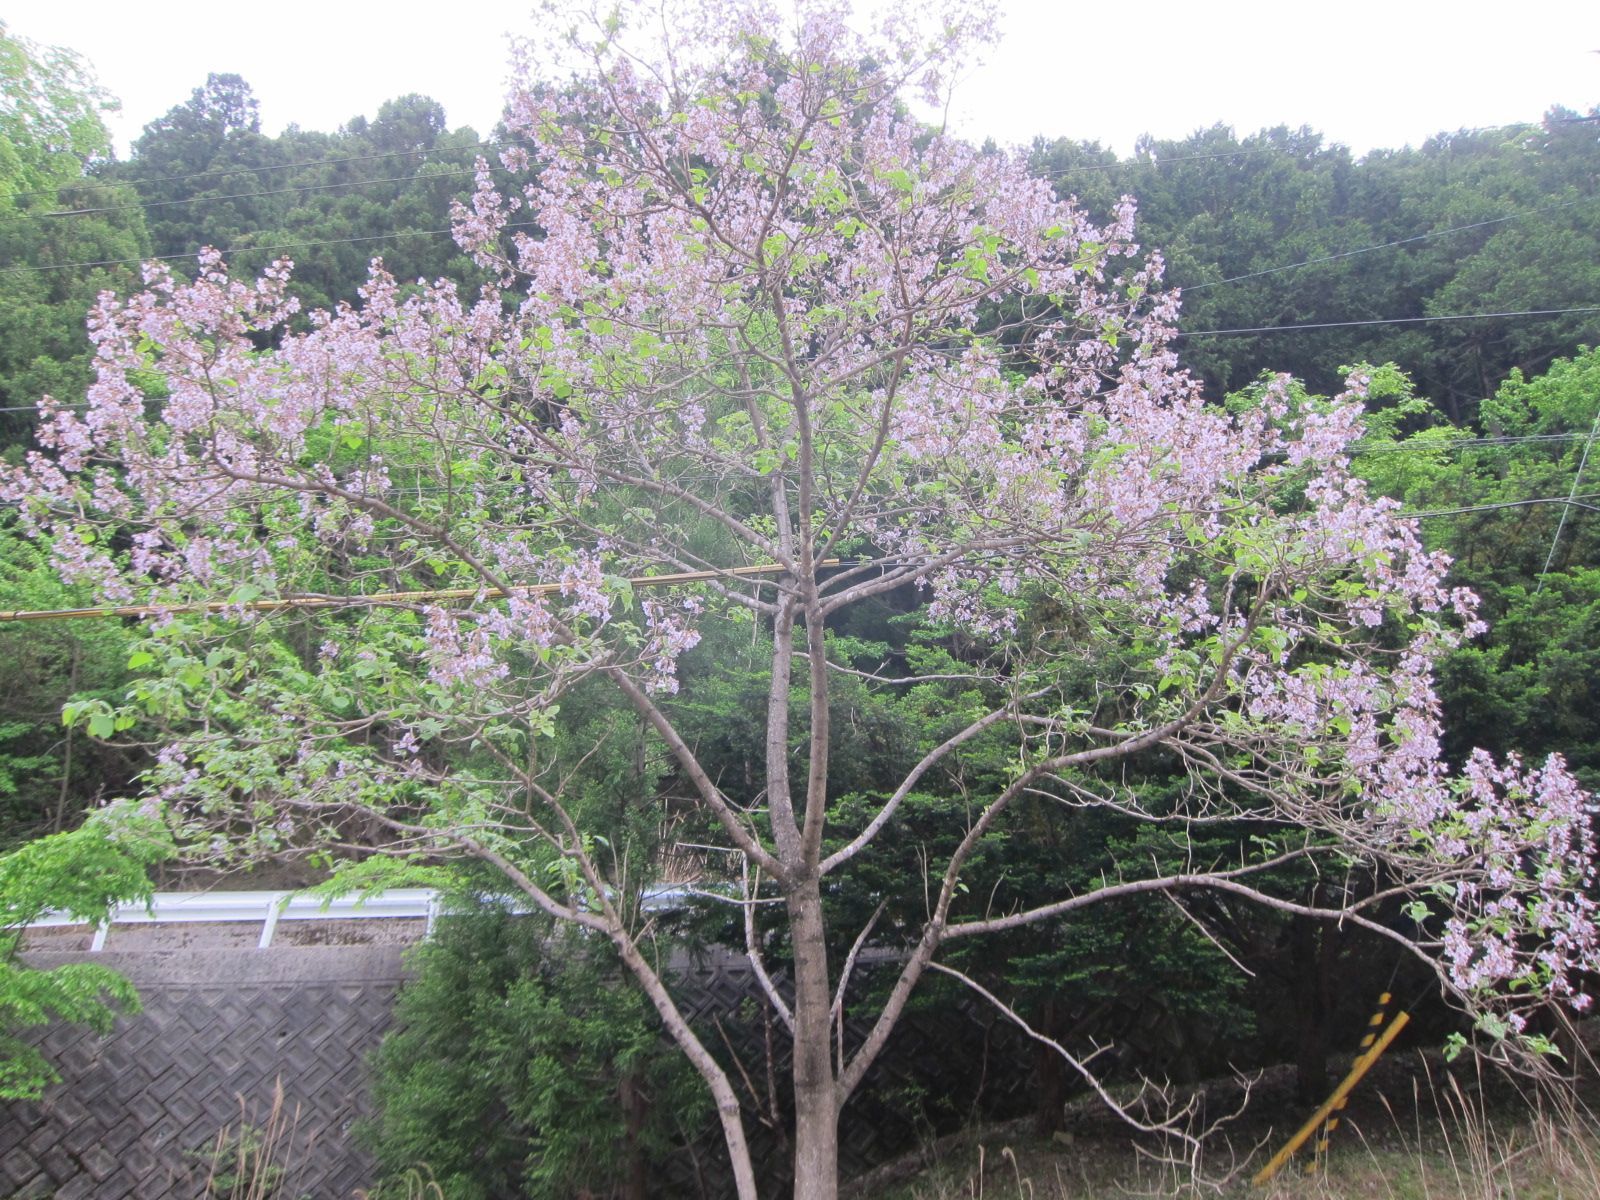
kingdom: Plantae
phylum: Tracheophyta
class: Magnoliopsida
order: Lamiales
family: Paulowniaceae
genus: Paulownia
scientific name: Paulownia tomentosa
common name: Foxglove-tree
